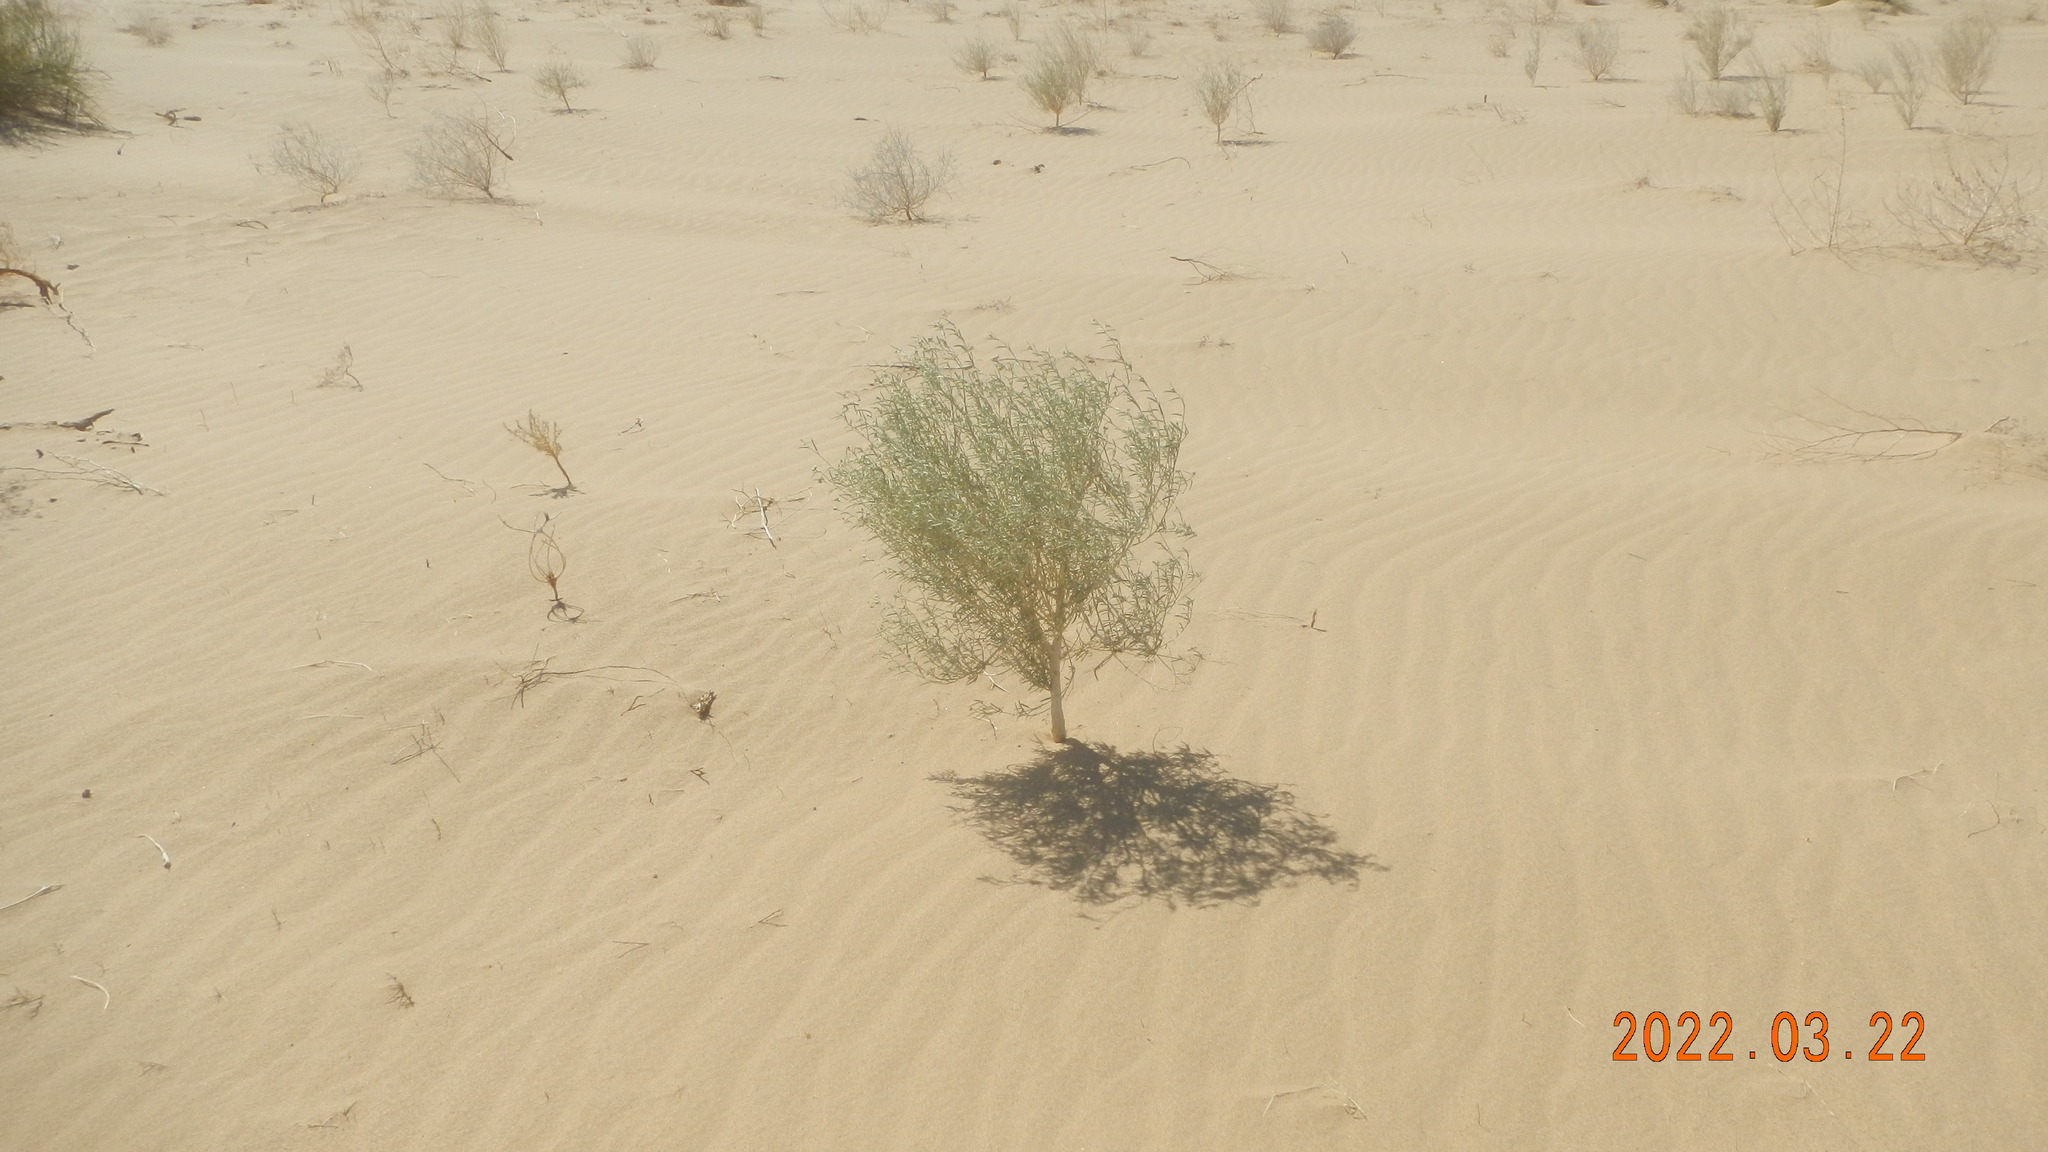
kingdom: Plantae
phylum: Tracheophyta
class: Magnoliopsida
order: Malpighiales
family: Euphorbiaceae
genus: Croton
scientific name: Croton californicus
